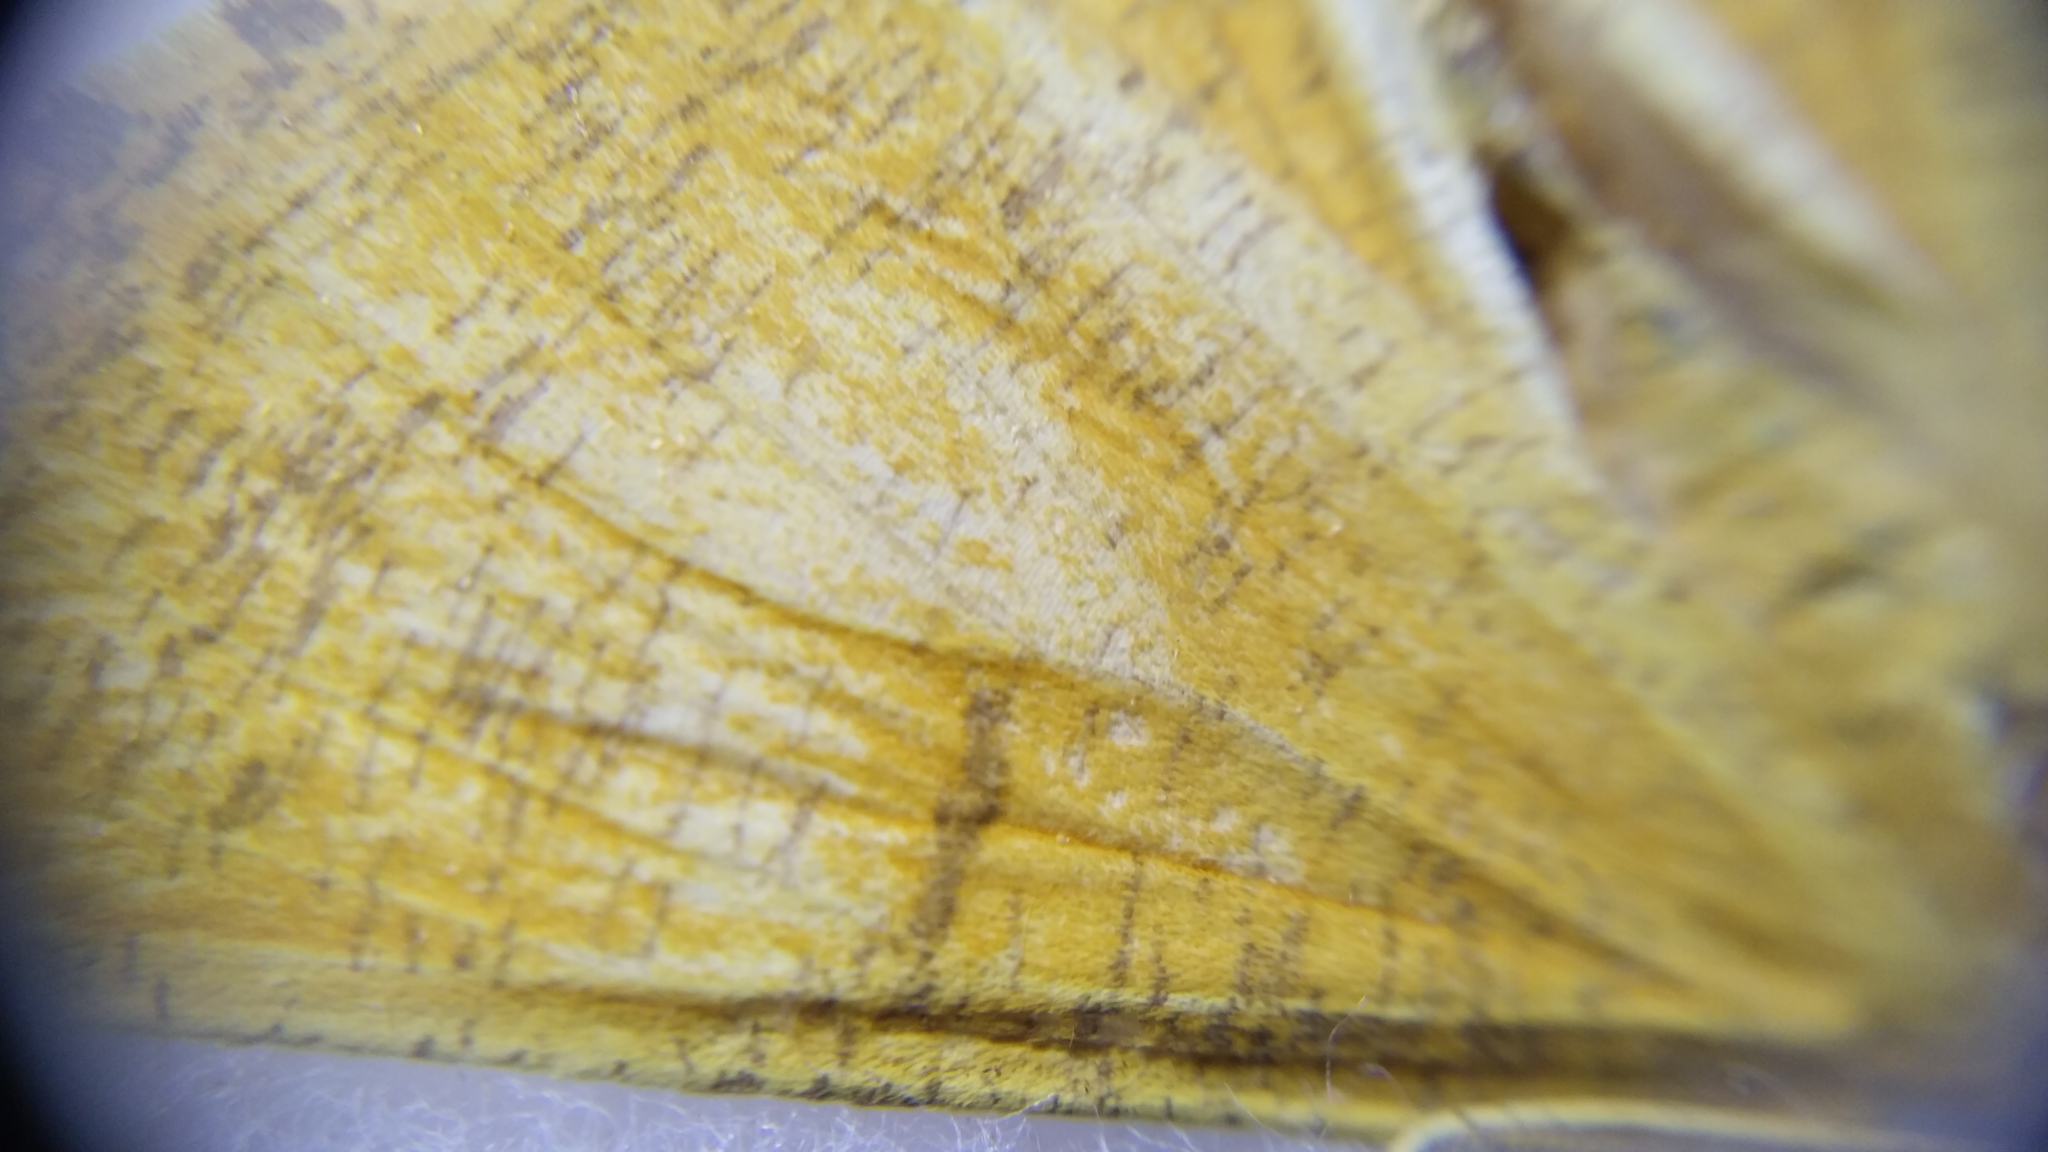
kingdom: Animalia
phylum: Arthropoda
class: Insecta
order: Lepidoptera
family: Geometridae
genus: Angerona
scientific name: Angerona prunaria
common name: Orange moth
